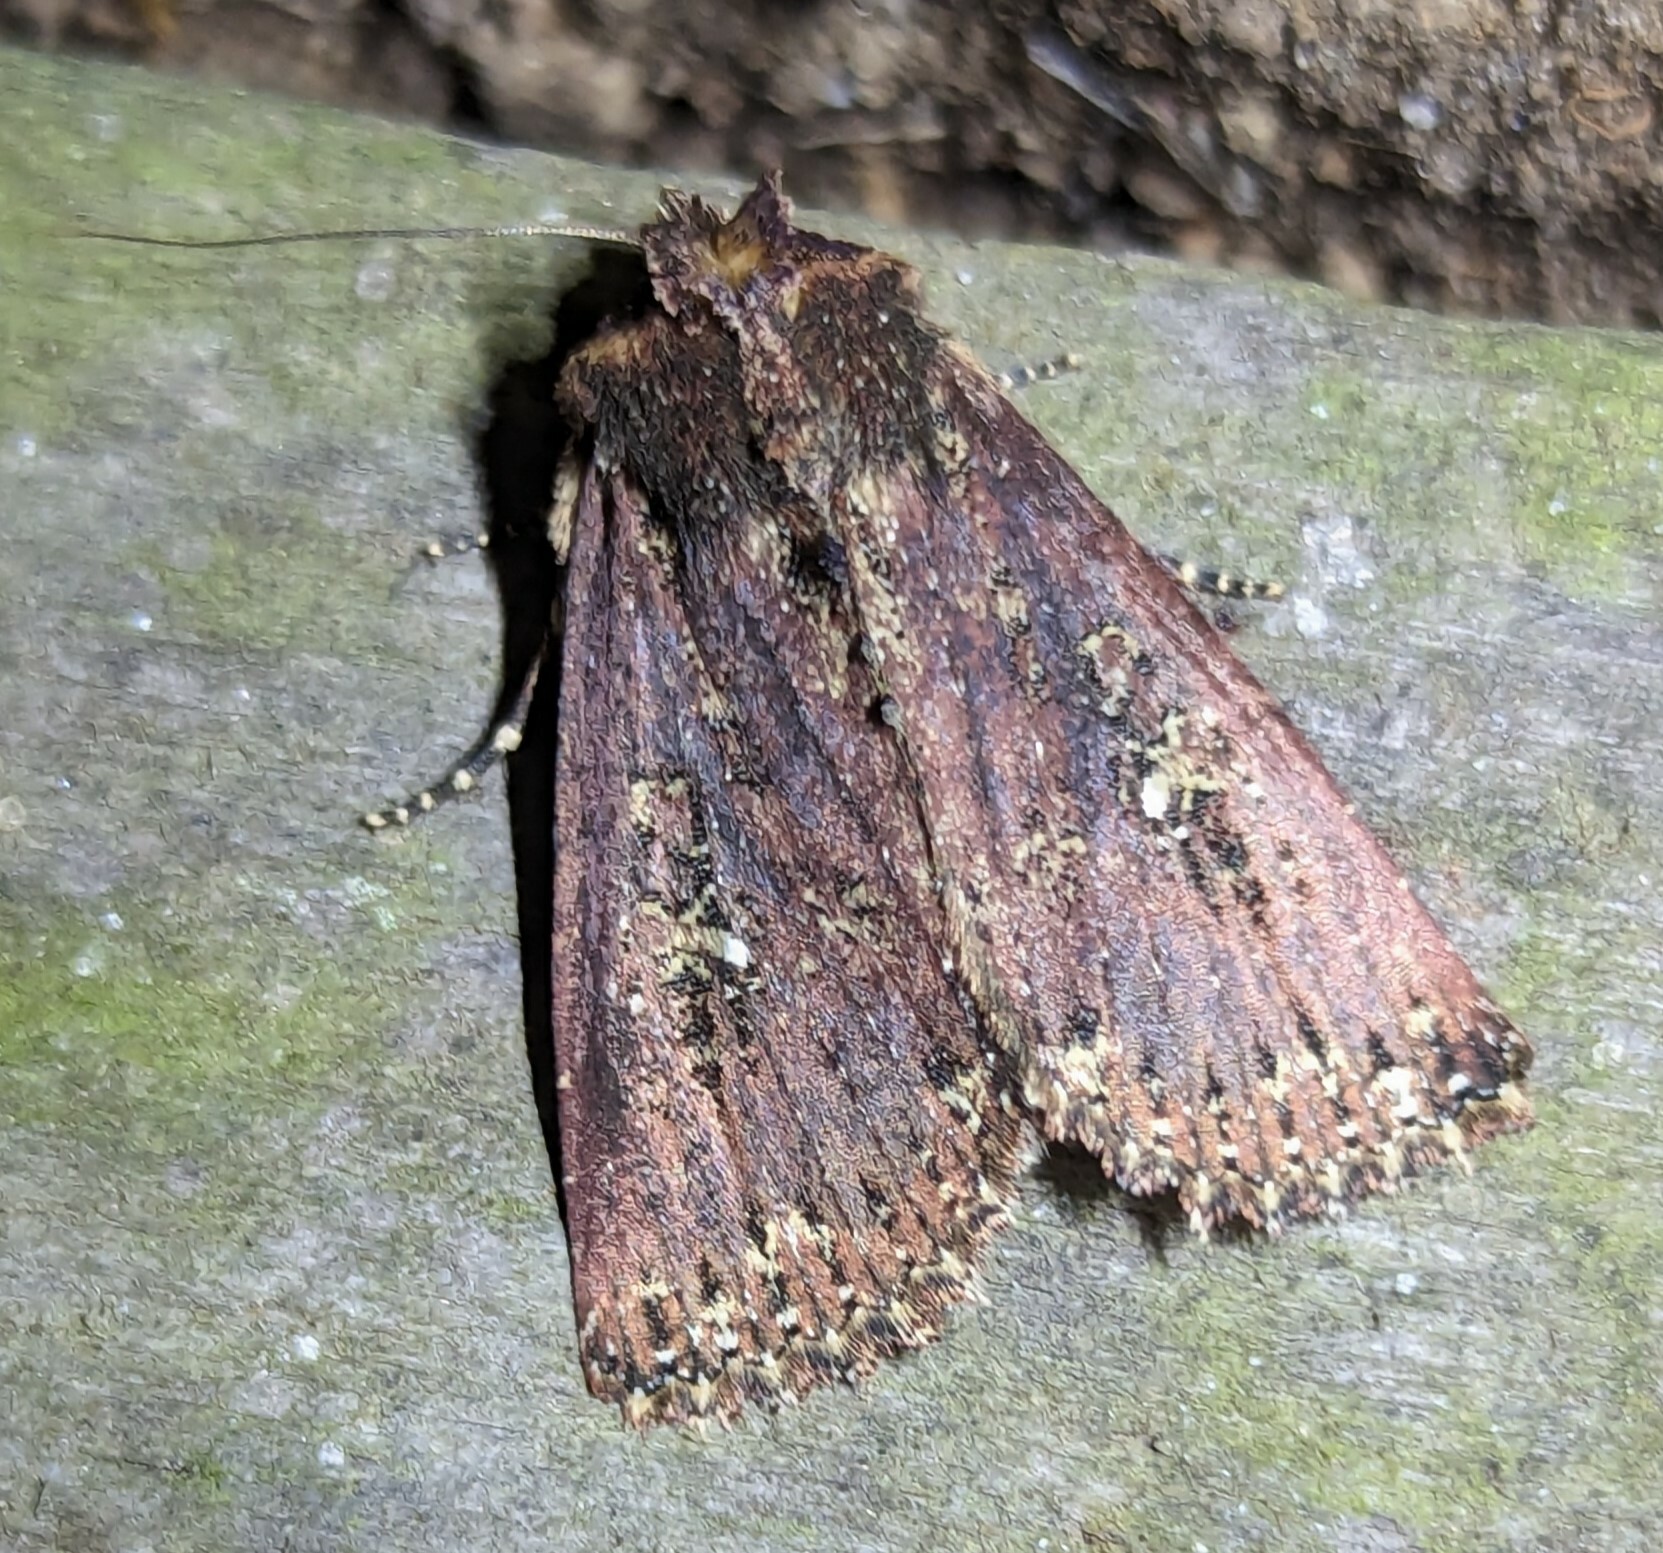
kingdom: Animalia
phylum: Arthropoda
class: Insecta
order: Lepidoptera
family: Noctuidae
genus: Condica
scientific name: Condica roxana
